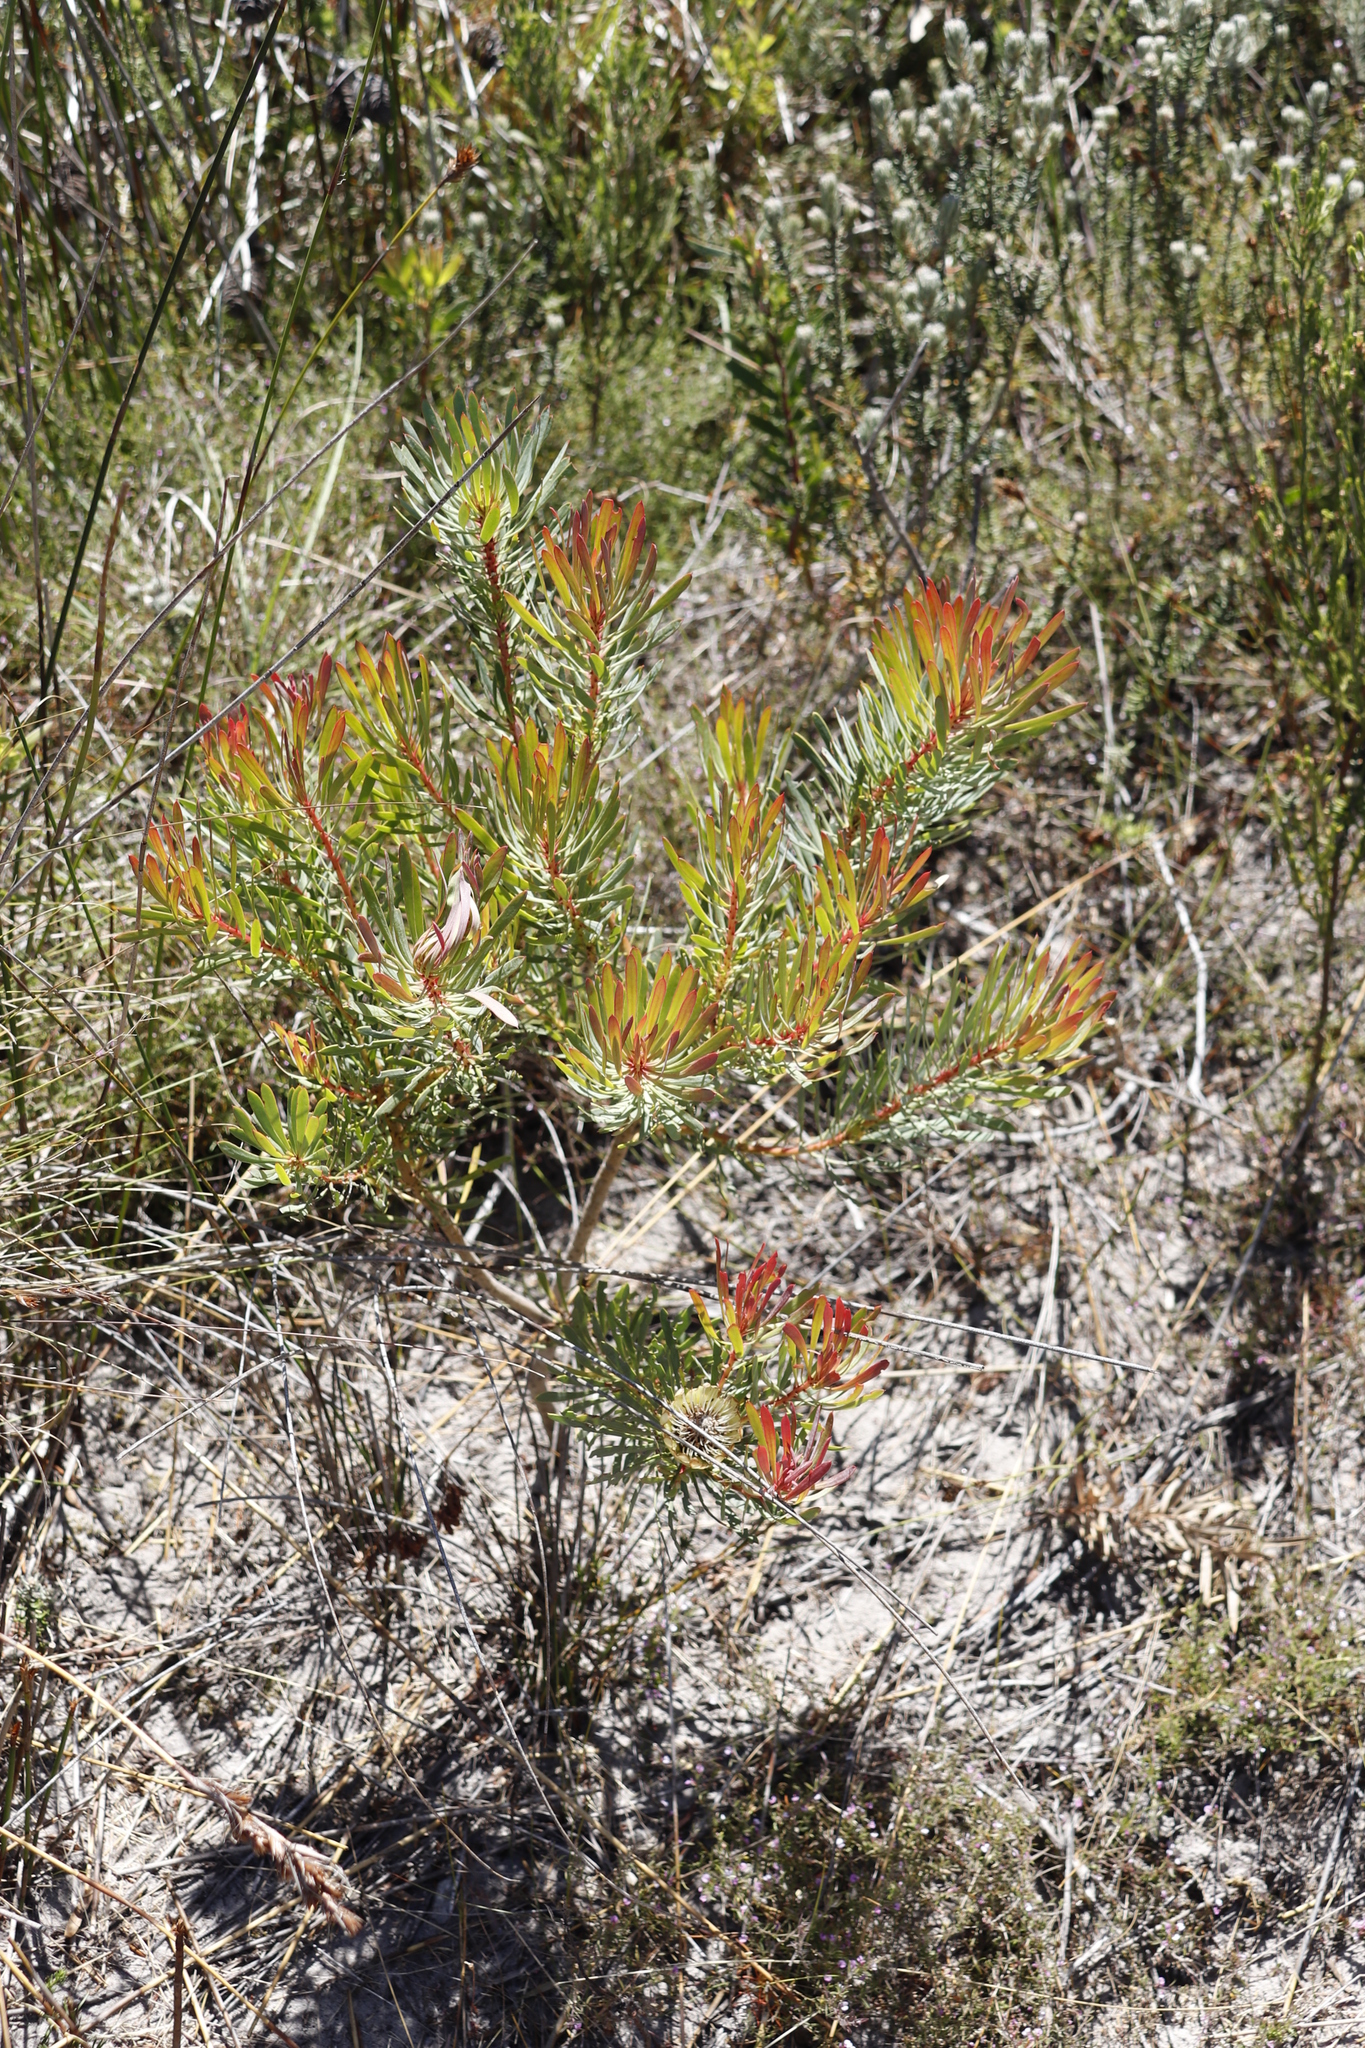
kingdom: Plantae
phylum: Tracheophyta
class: Magnoliopsida
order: Proteales
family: Proteaceae
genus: Protea
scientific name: Protea scolymocephala
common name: Thistle sugarbush
